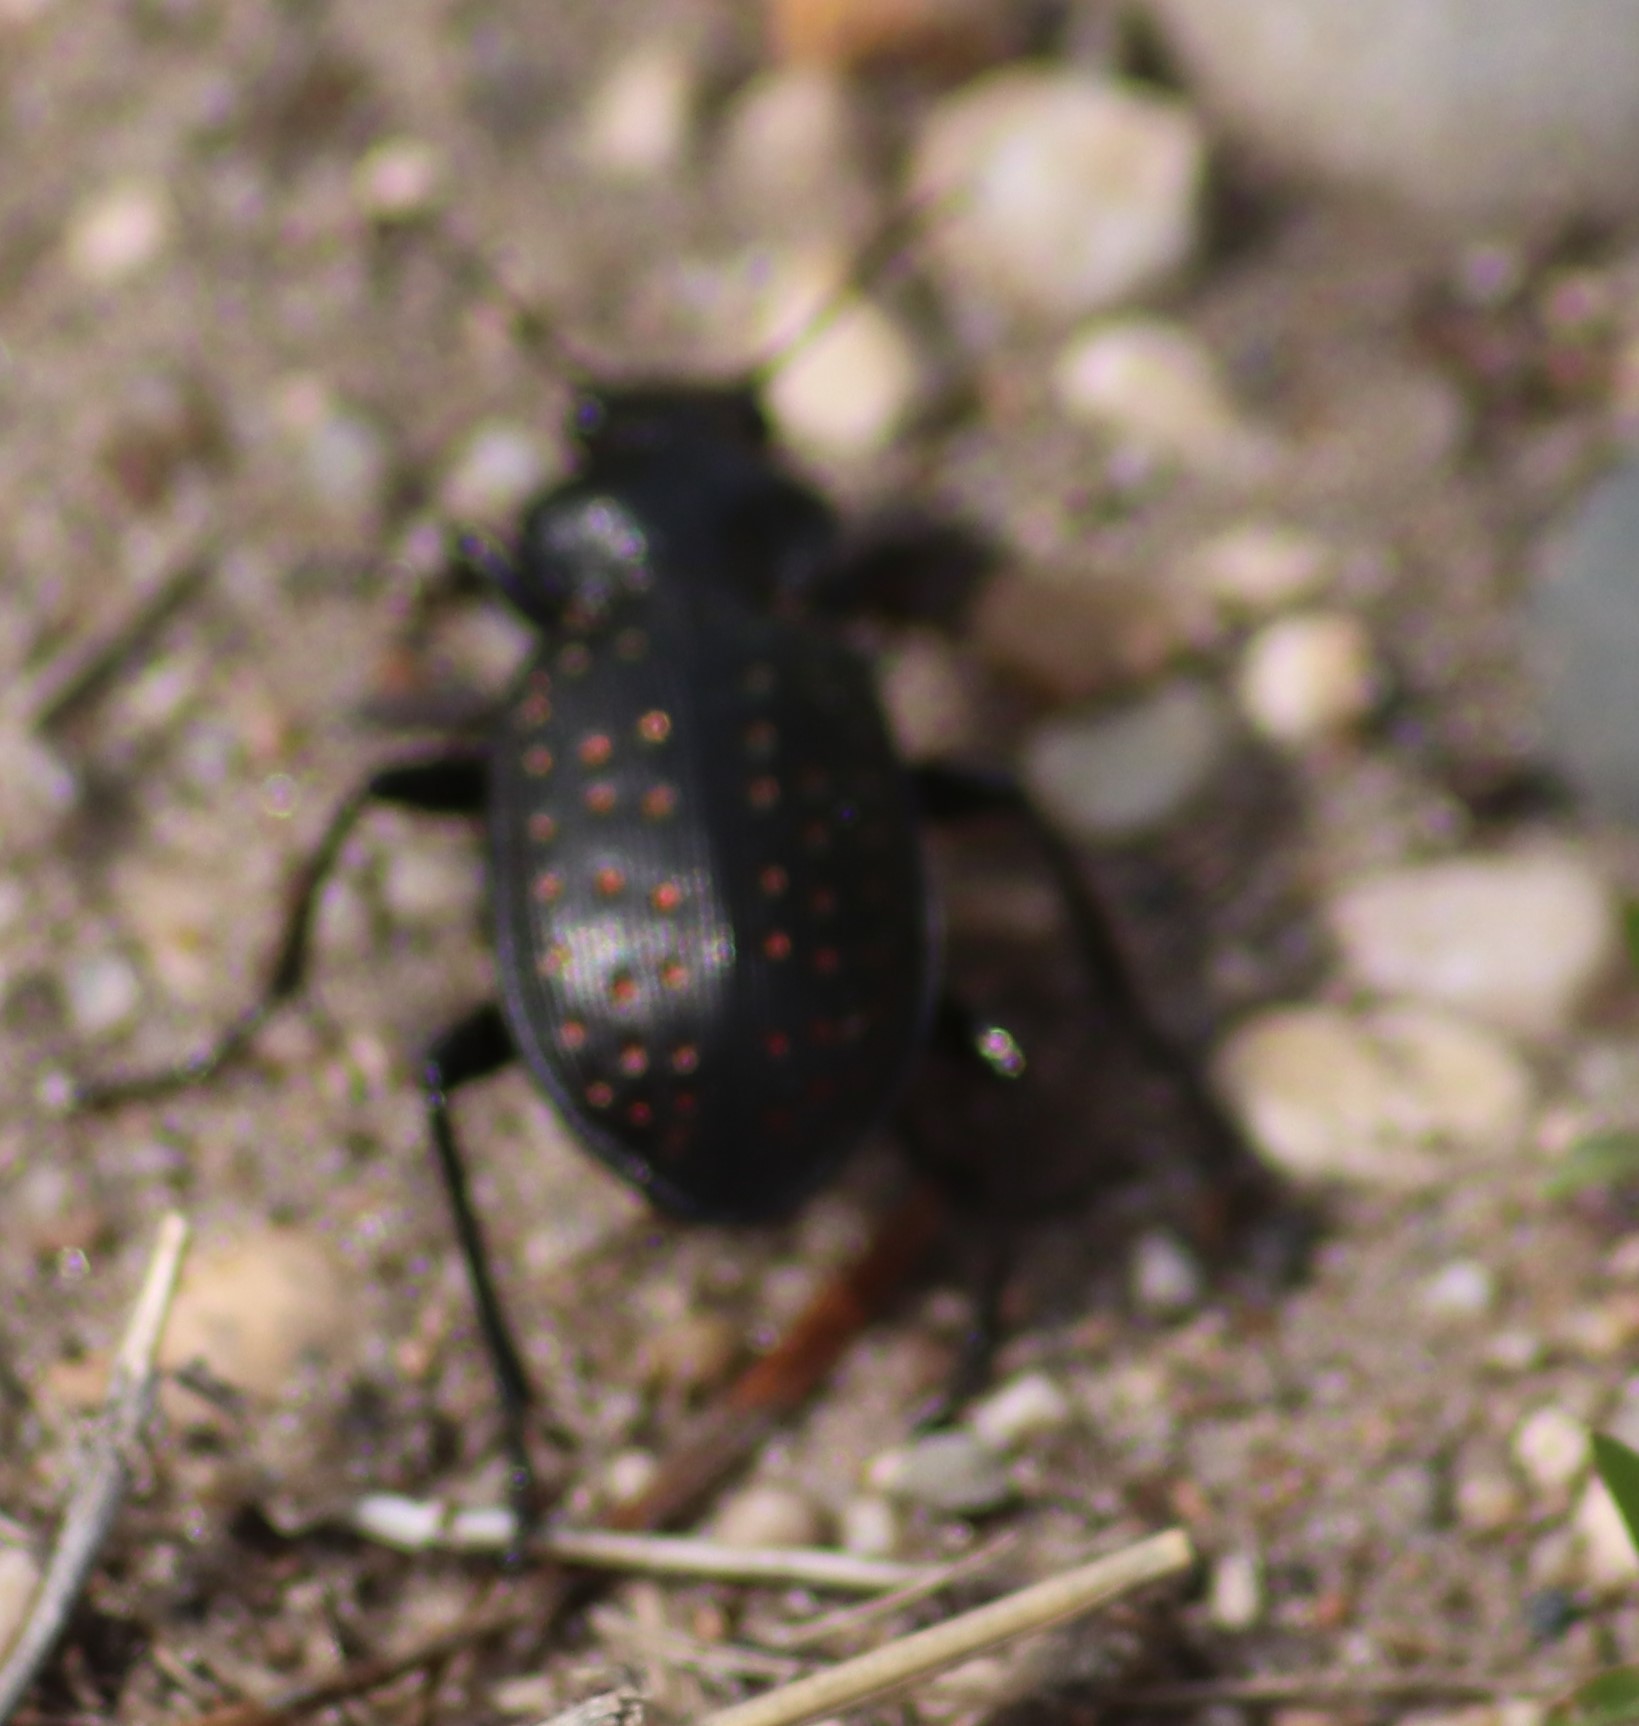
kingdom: Animalia
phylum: Arthropoda
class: Insecta
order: Coleoptera
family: Carabidae
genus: Calosoma
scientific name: Calosoma calidum
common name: Fiery hunter
